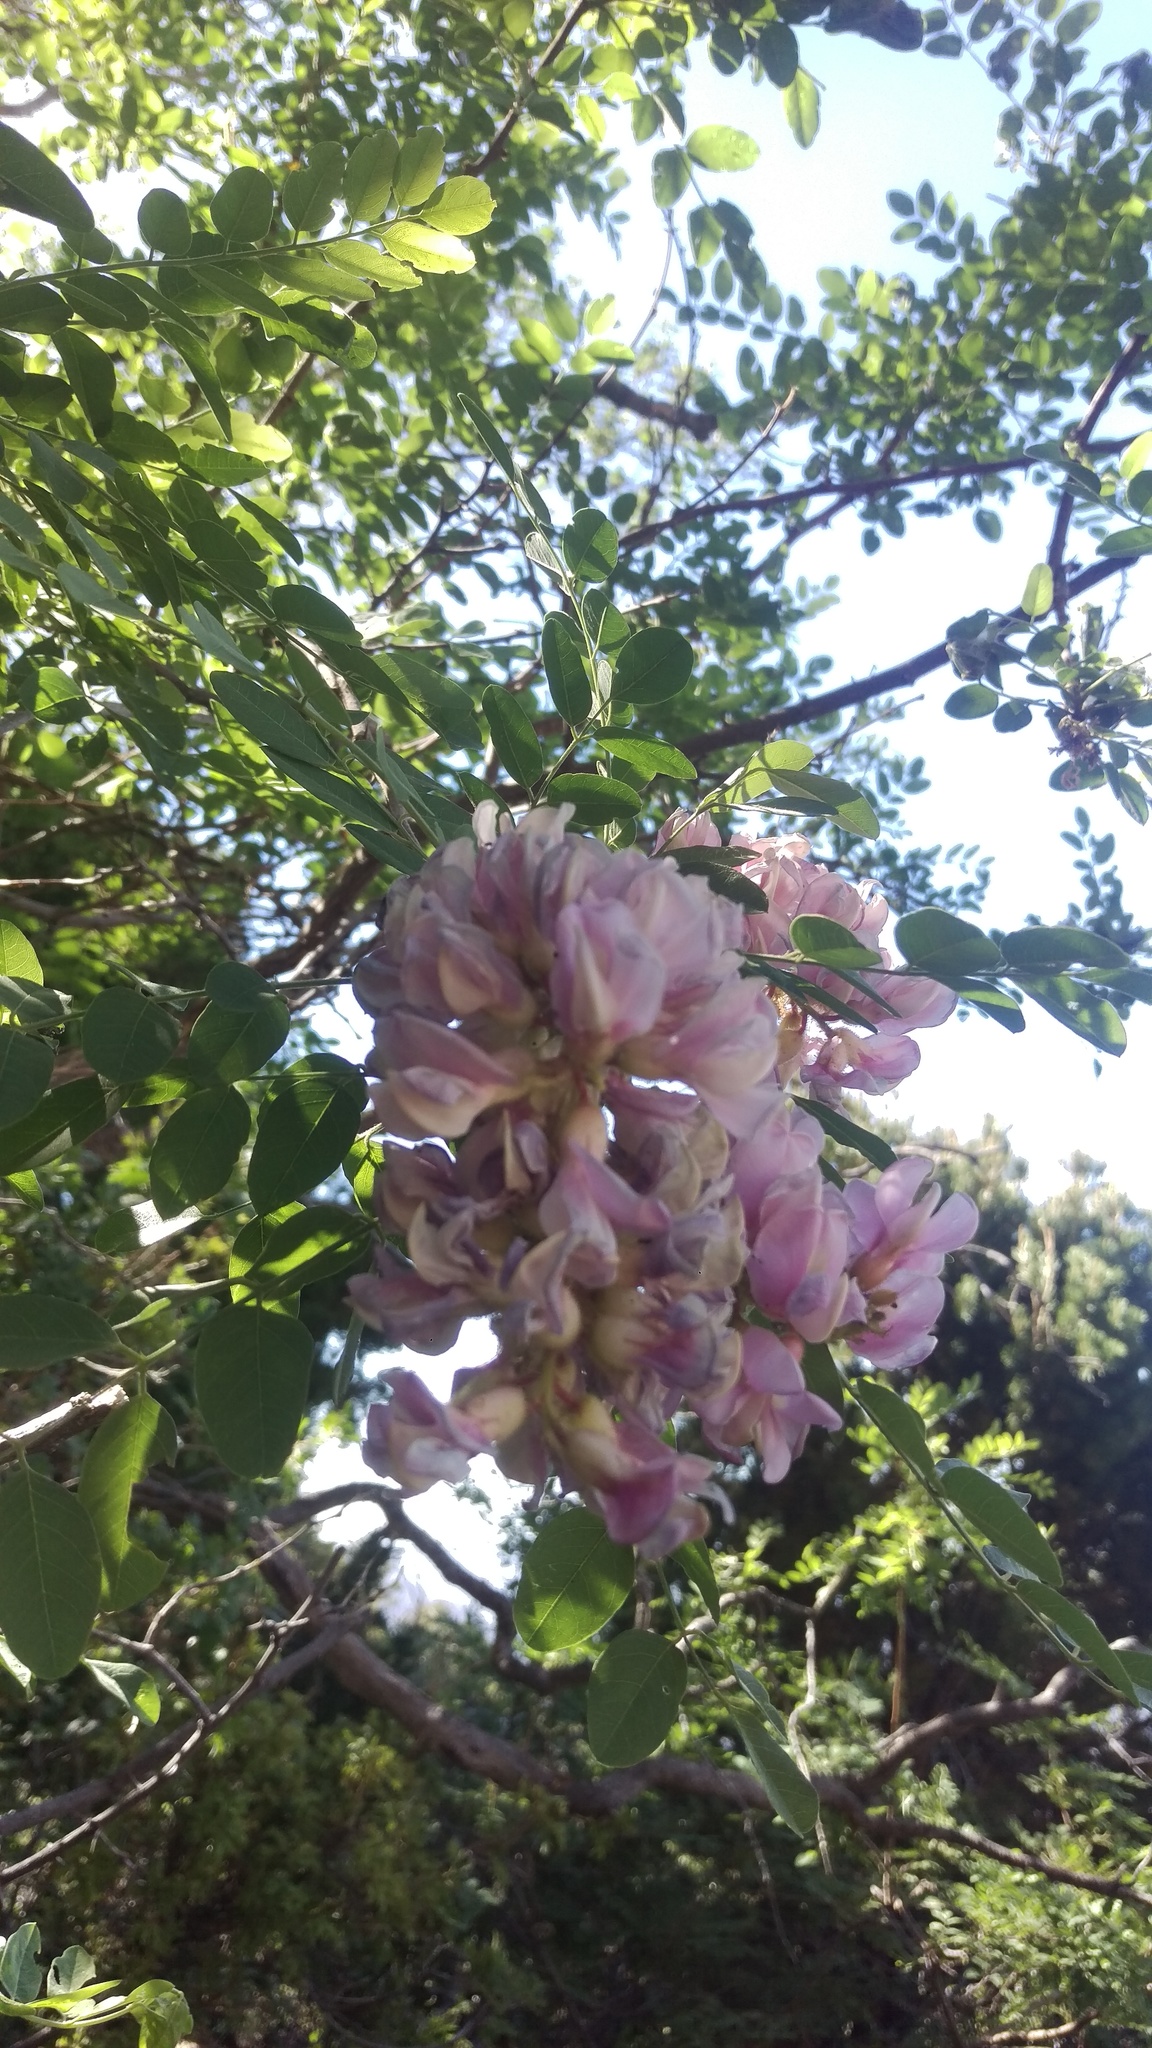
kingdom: Plantae
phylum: Tracheophyta
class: Magnoliopsida
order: Fabales
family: Fabaceae
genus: Robinia
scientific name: Robinia neomexicana
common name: New mexico locust
